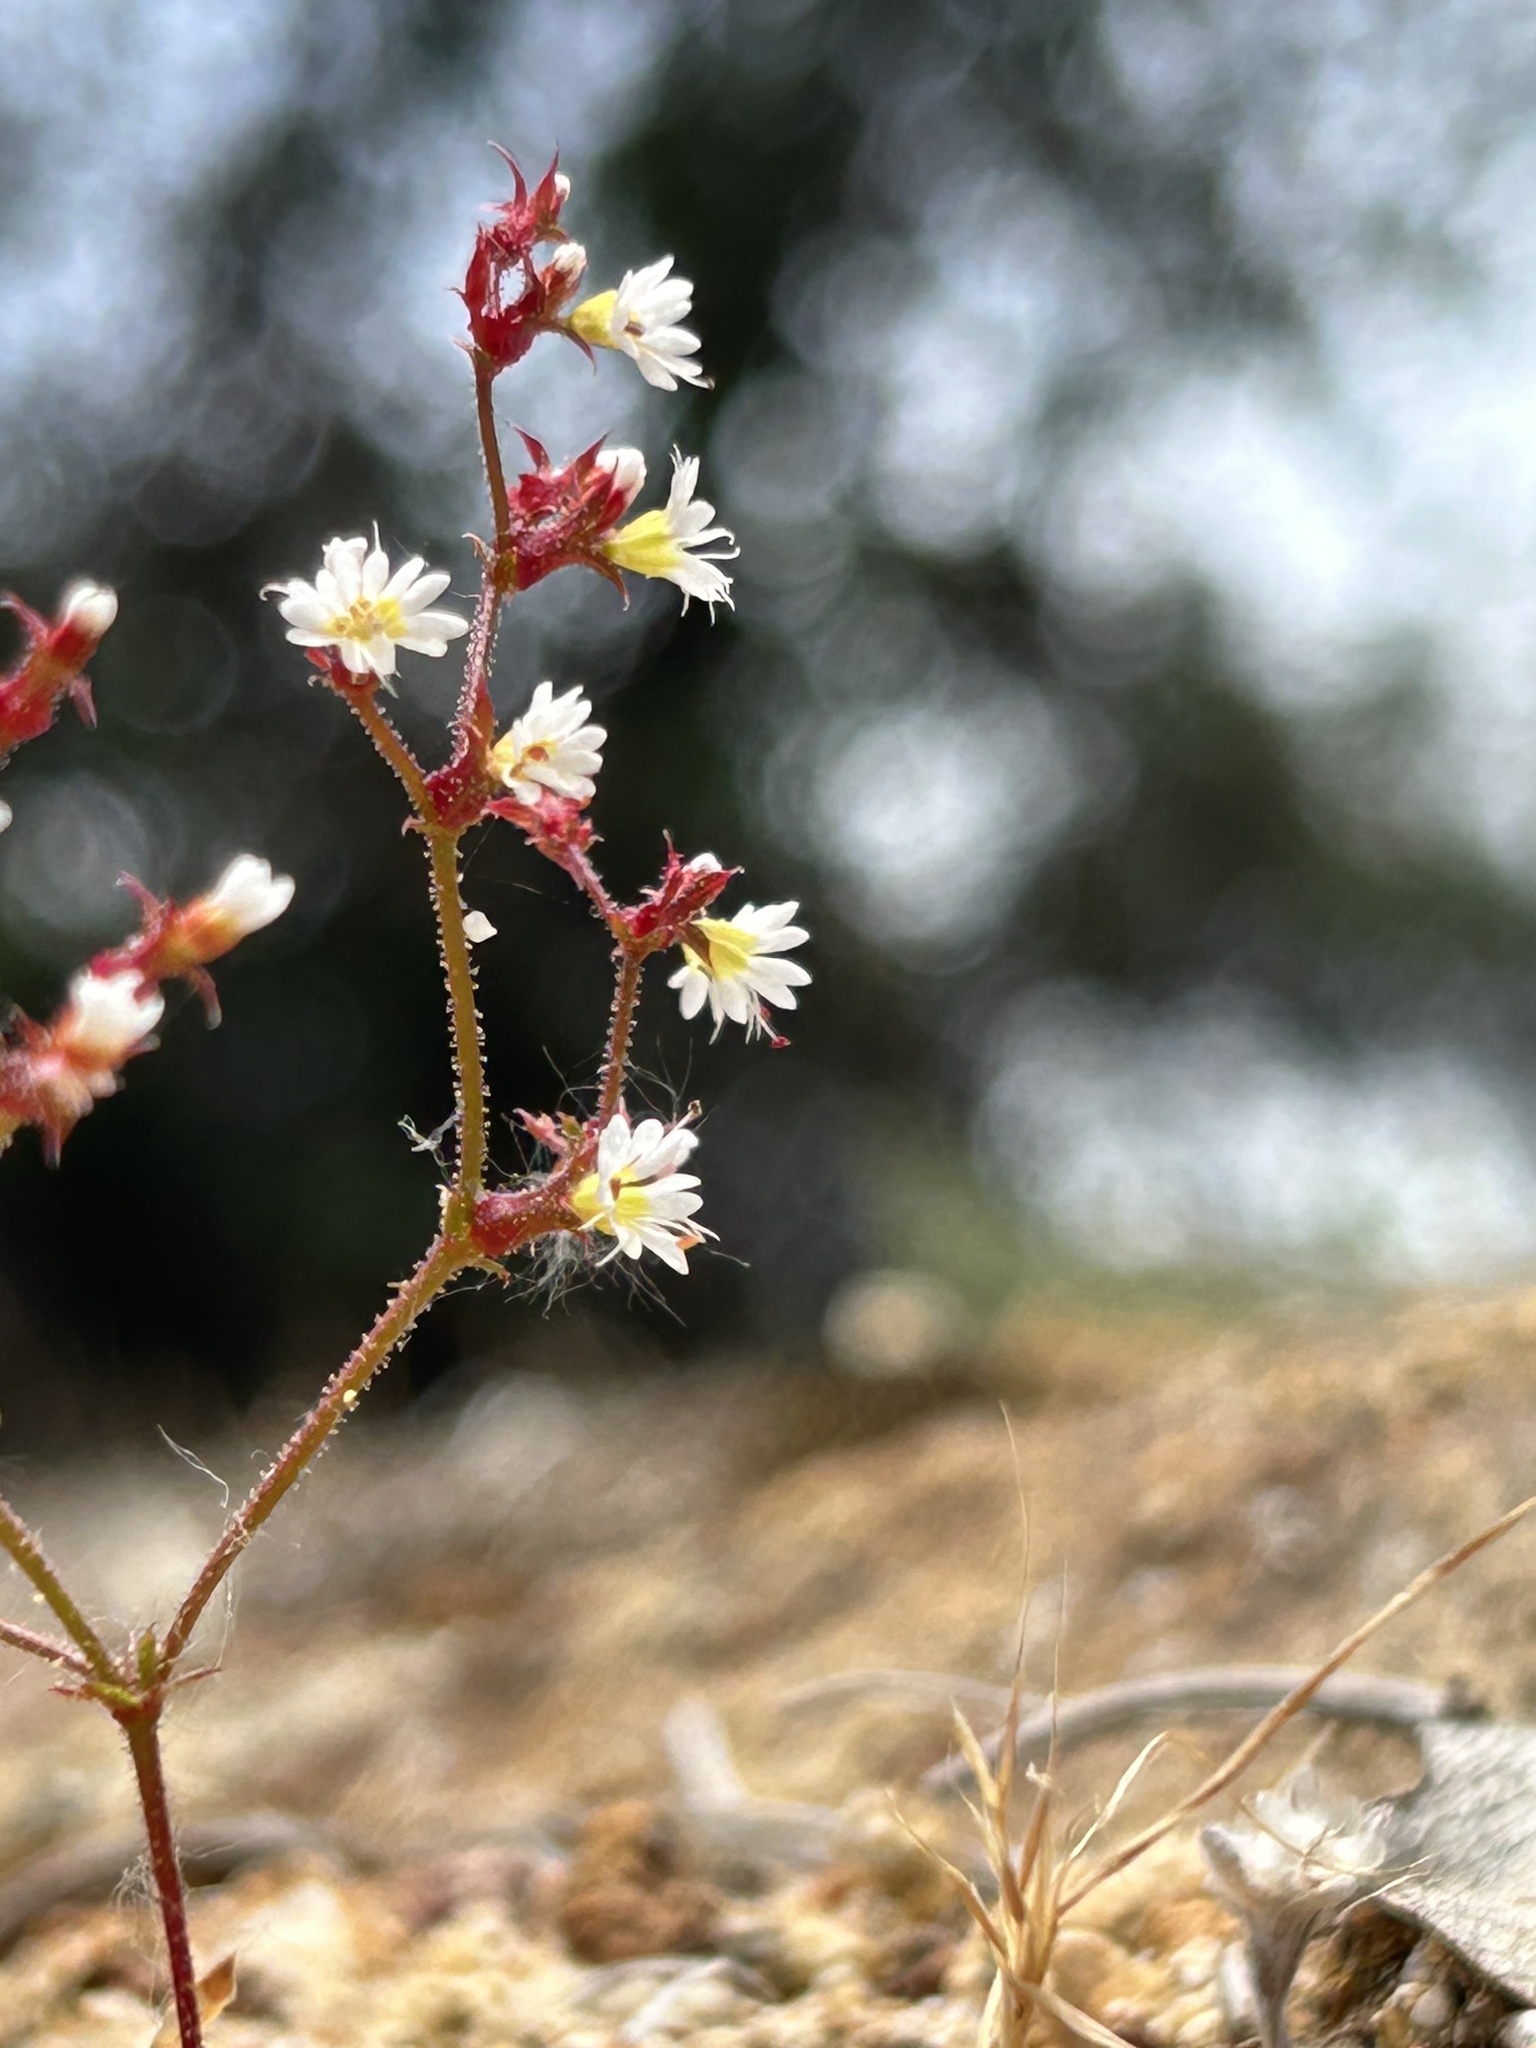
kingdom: Plantae
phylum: Tracheophyta
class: Magnoliopsida
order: Caryophyllales
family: Polygonaceae
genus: Systenotheca
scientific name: Systenotheca vortriedei
